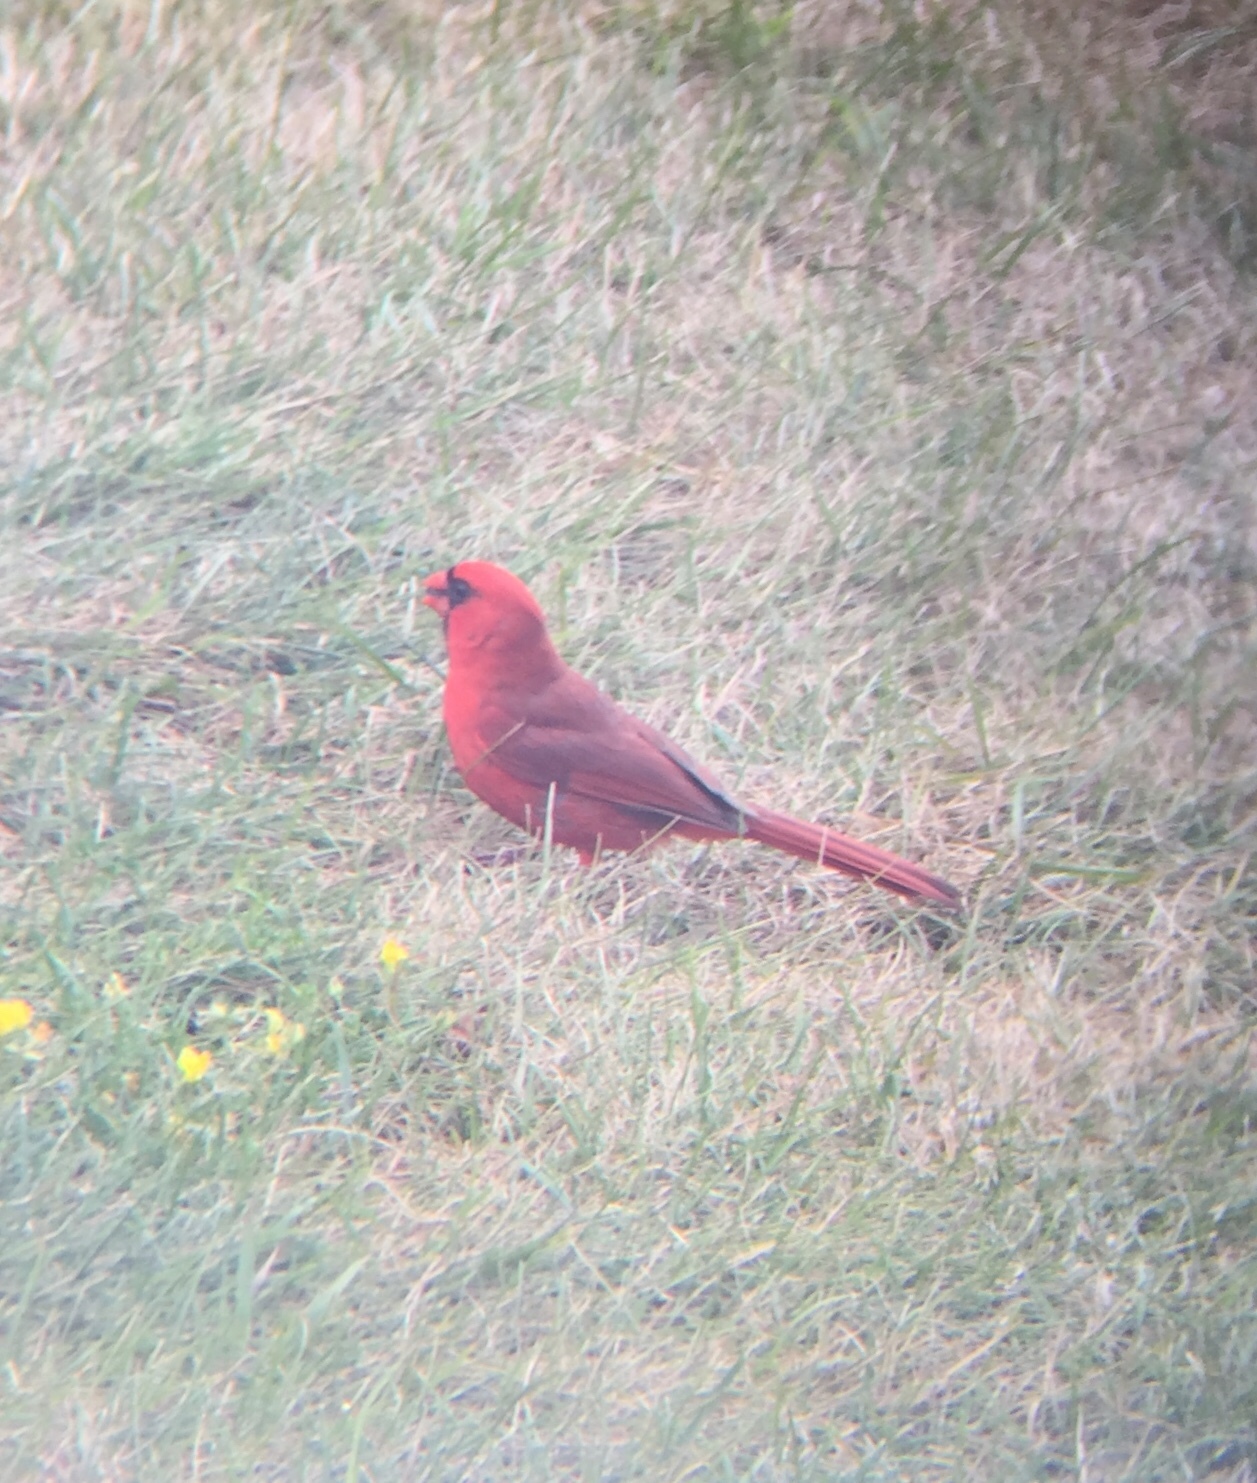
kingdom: Animalia
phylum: Chordata
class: Aves
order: Passeriformes
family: Cardinalidae
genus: Cardinalis
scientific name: Cardinalis cardinalis
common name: Northern cardinal
